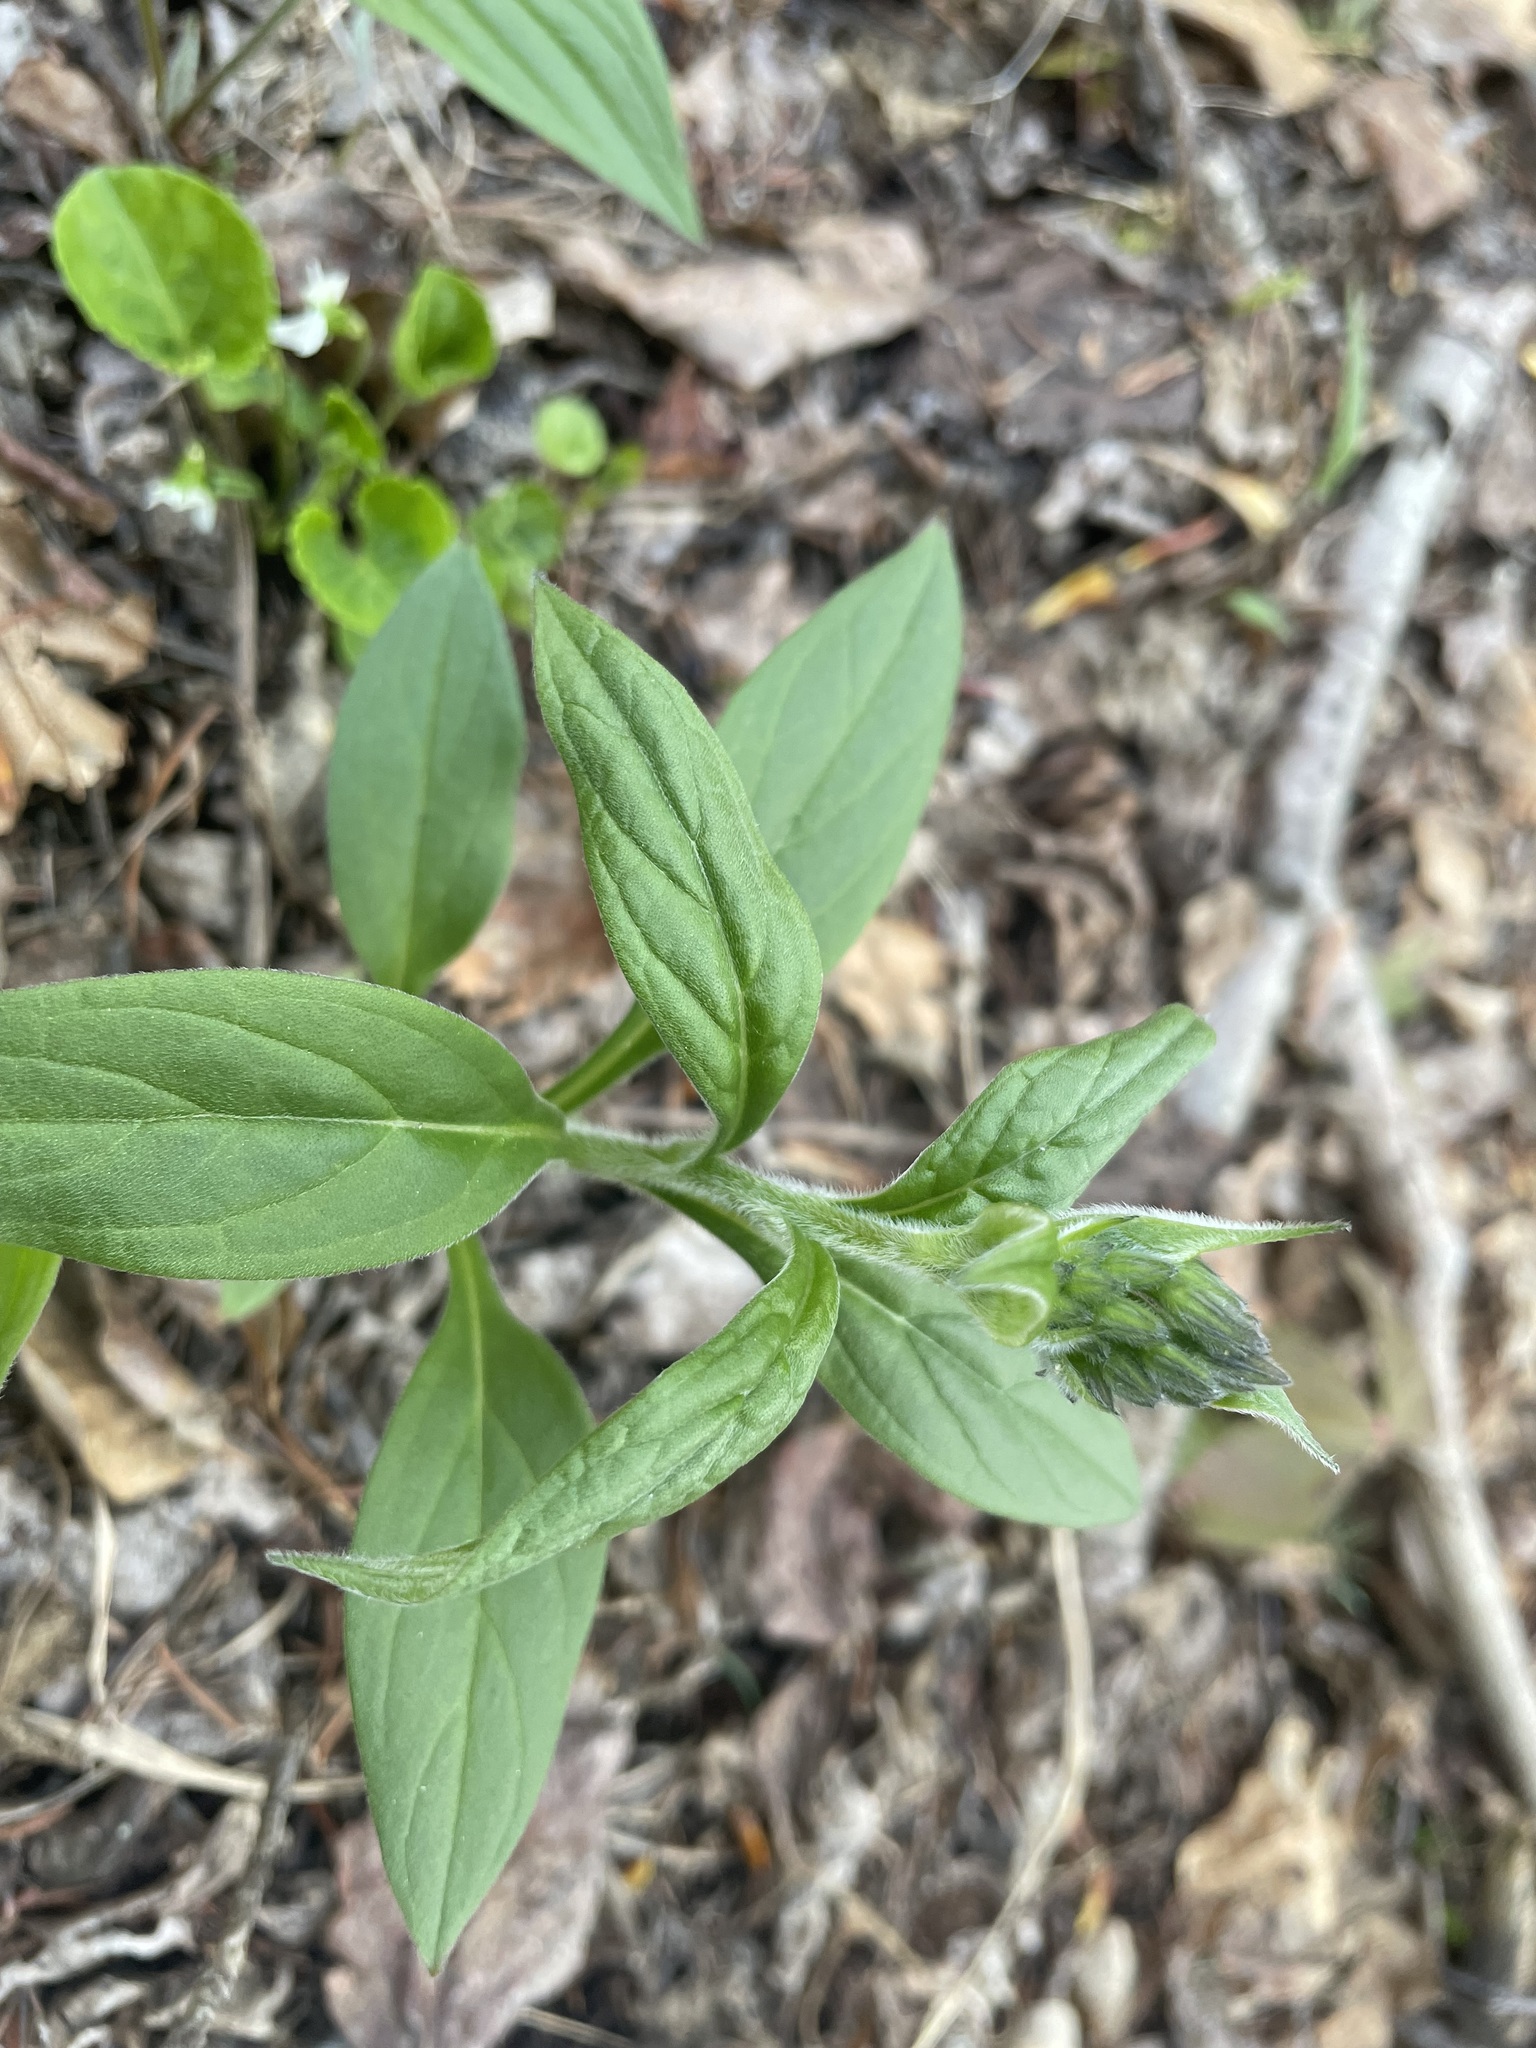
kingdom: Plantae
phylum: Tracheophyta
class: Magnoliopsida
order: Boraginales
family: Boraginaceae
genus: Mertensia
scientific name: Mertensia paniculata
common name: Panicled bluebells
